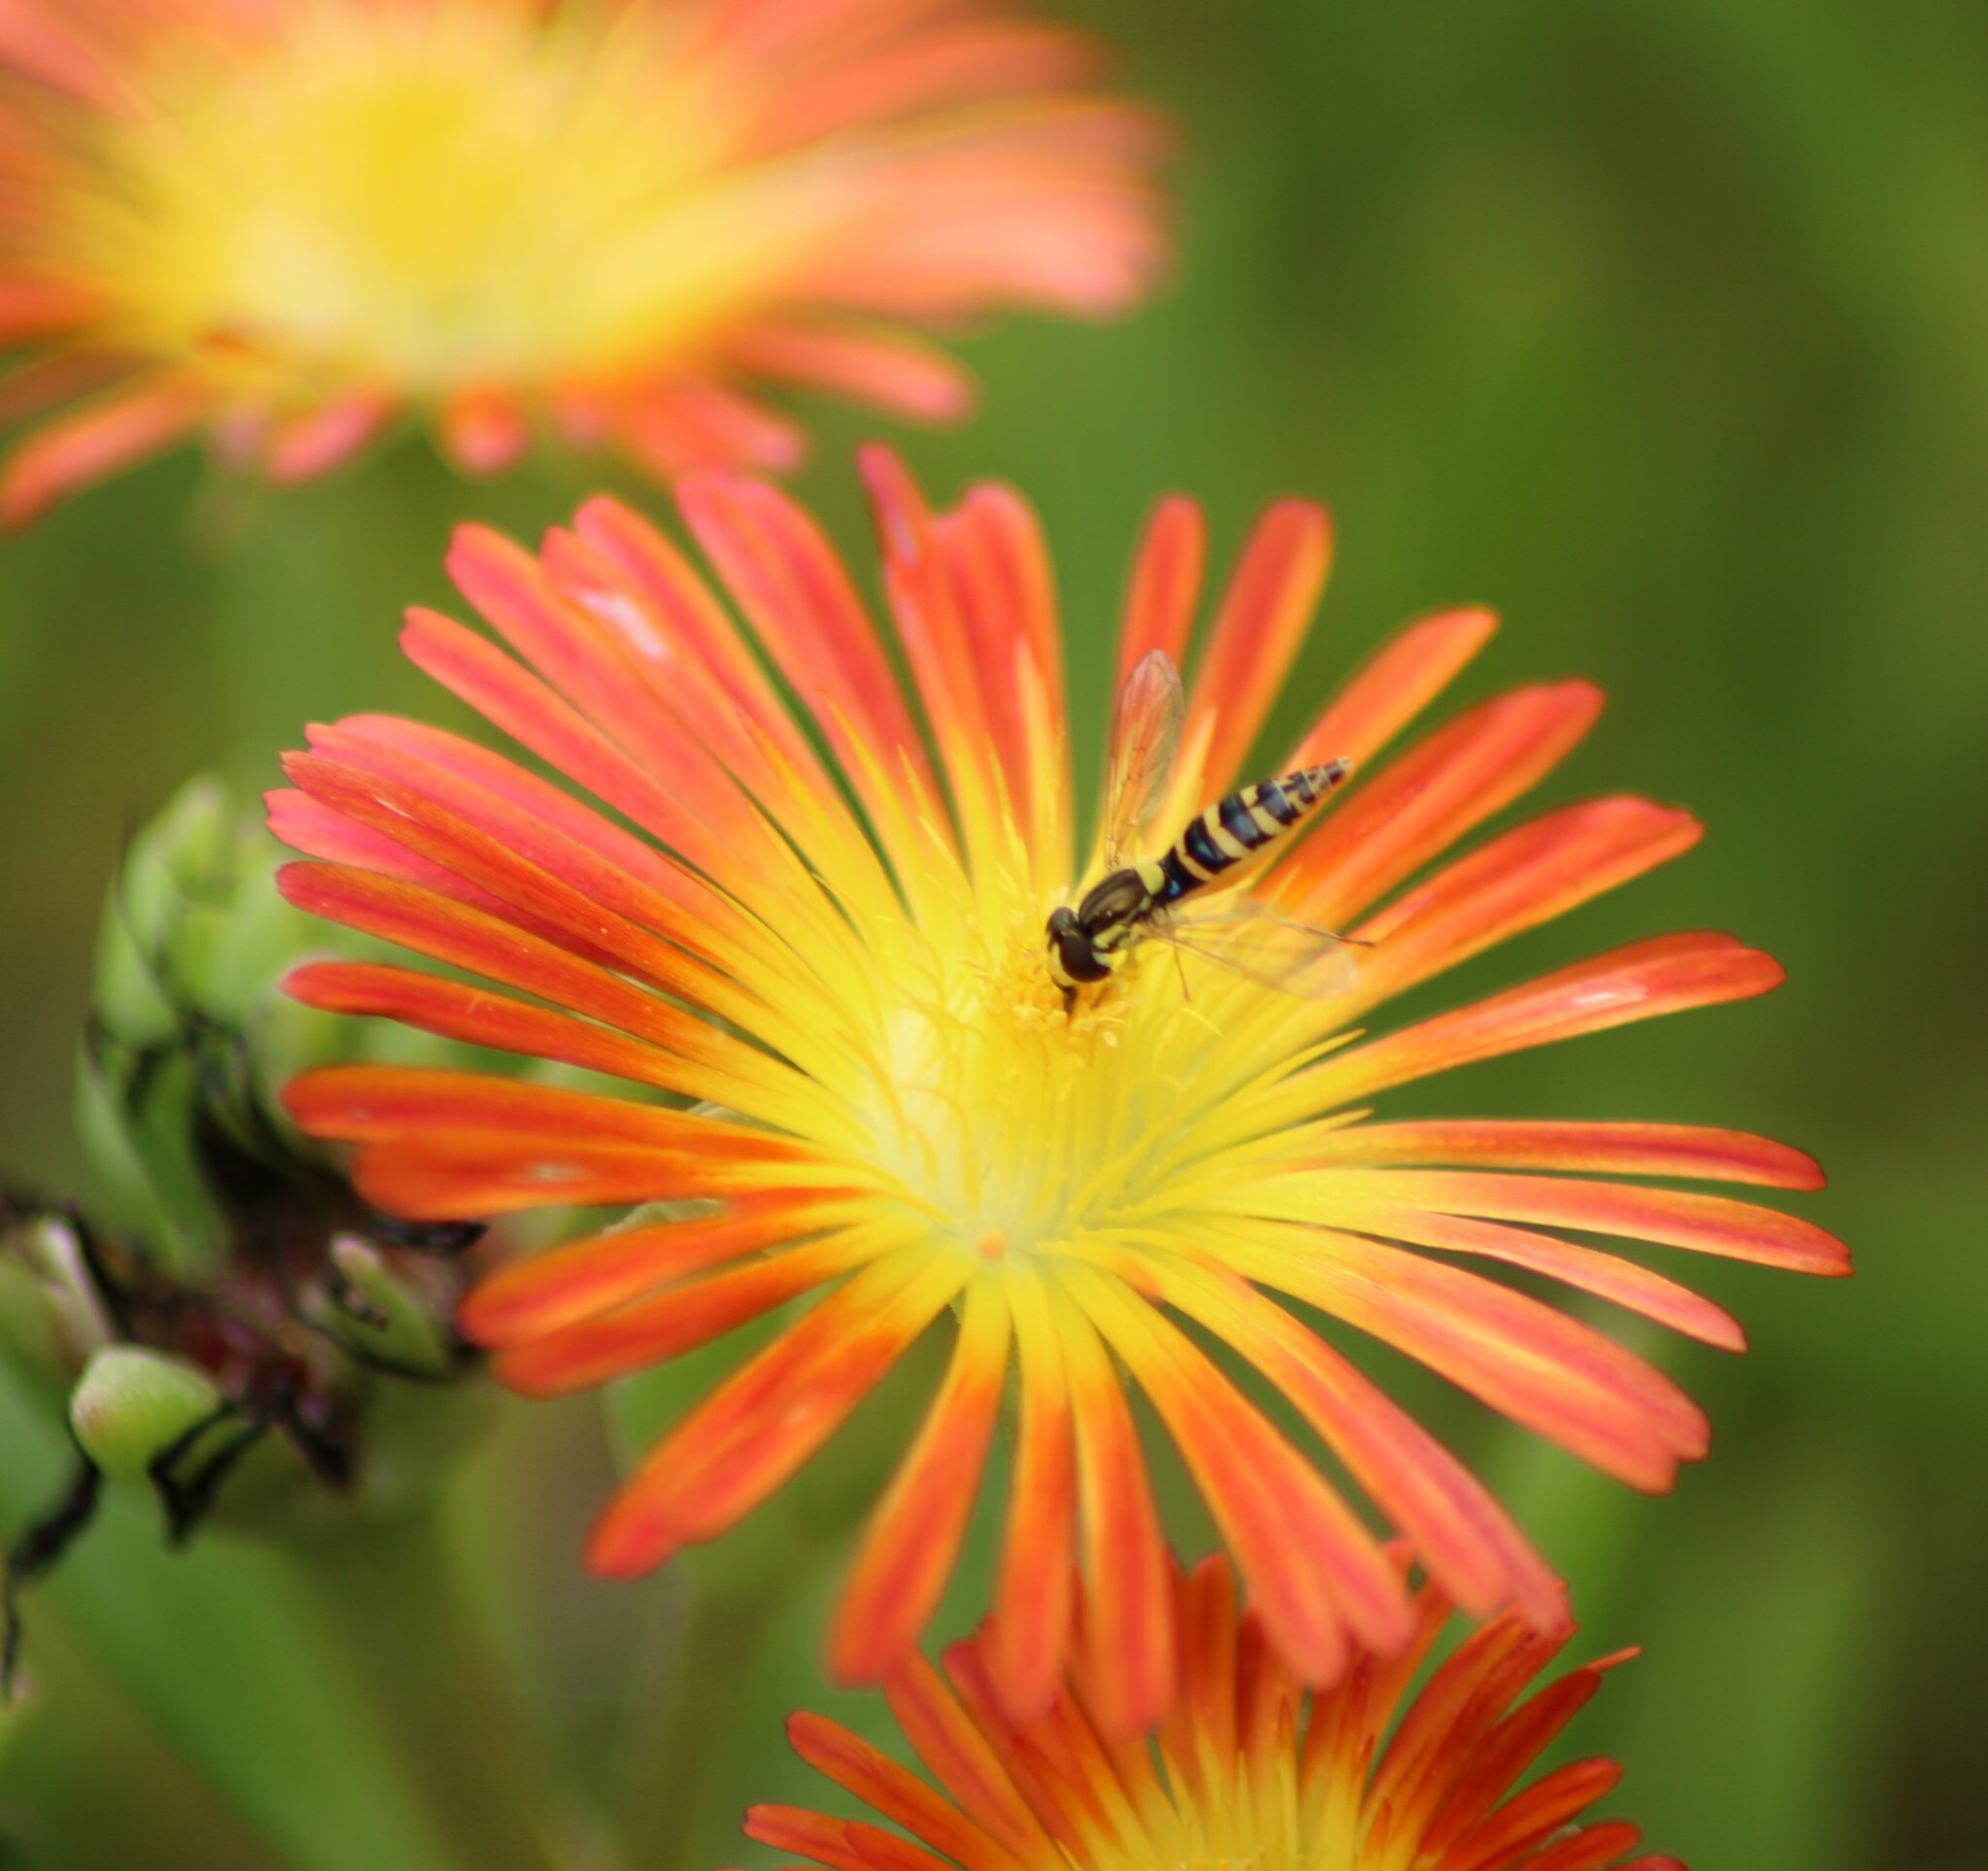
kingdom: Animalia
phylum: Arthropoda
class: Insecta
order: Diptera
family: Syrphidae
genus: Sphaerophoria
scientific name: Sphaerophoria
